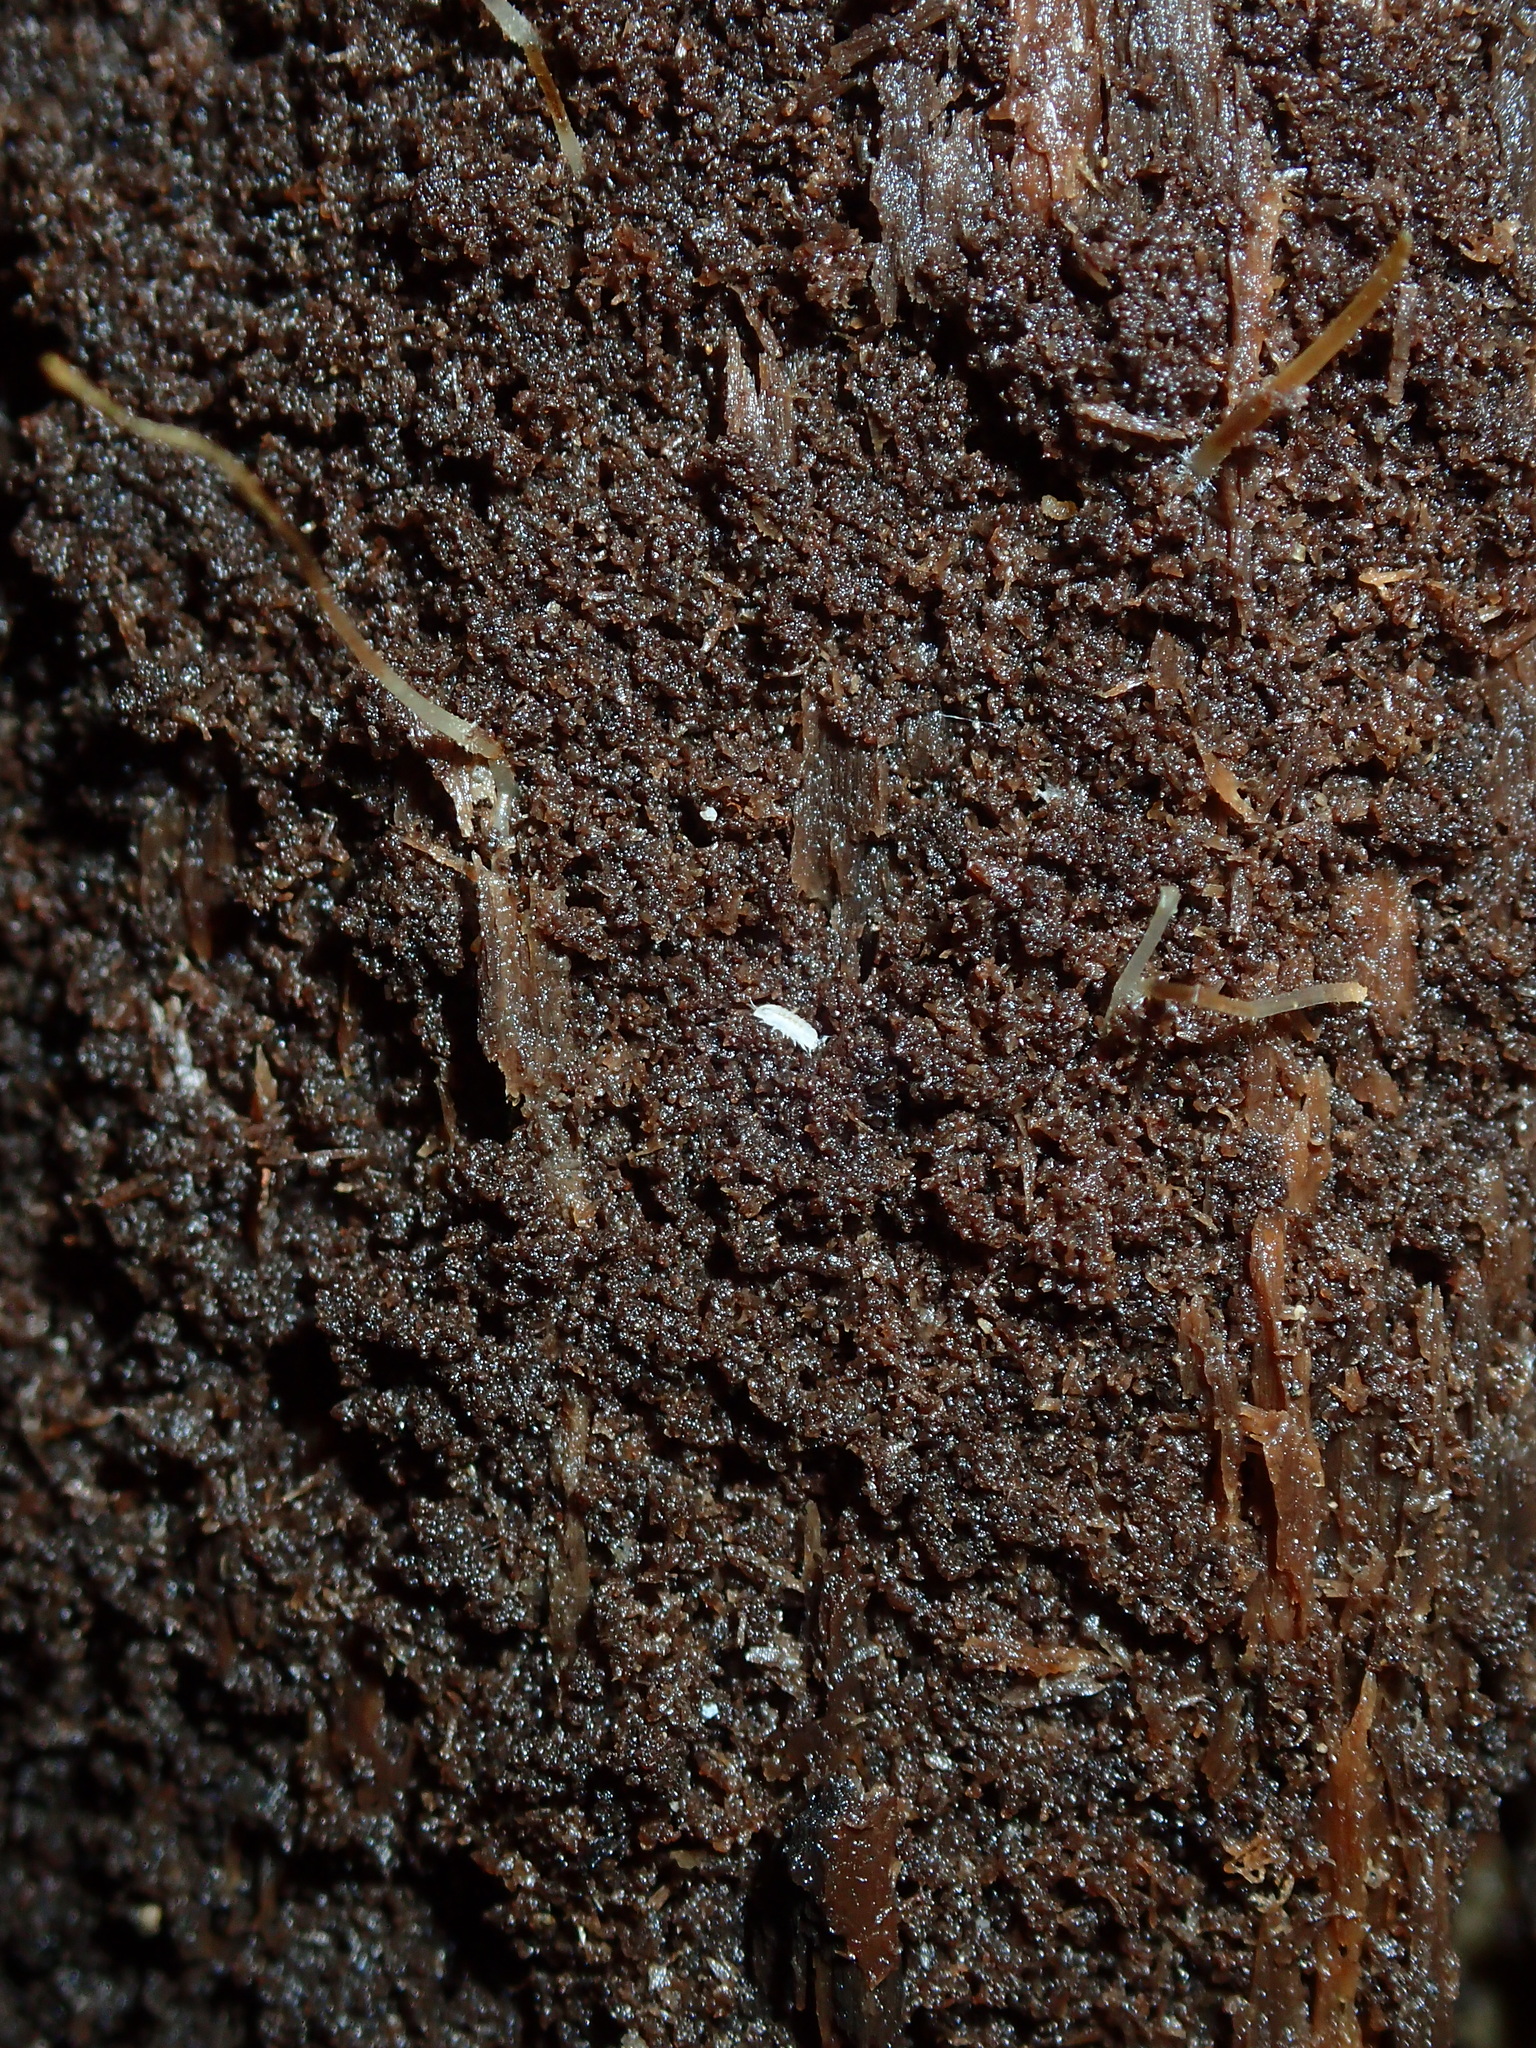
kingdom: Animalia
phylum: Arthropoda
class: Malacostraca
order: Isopoda
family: Trichoniscidae
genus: Trichoniscus
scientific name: Trichoniscus pygmaeus
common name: Isopod
